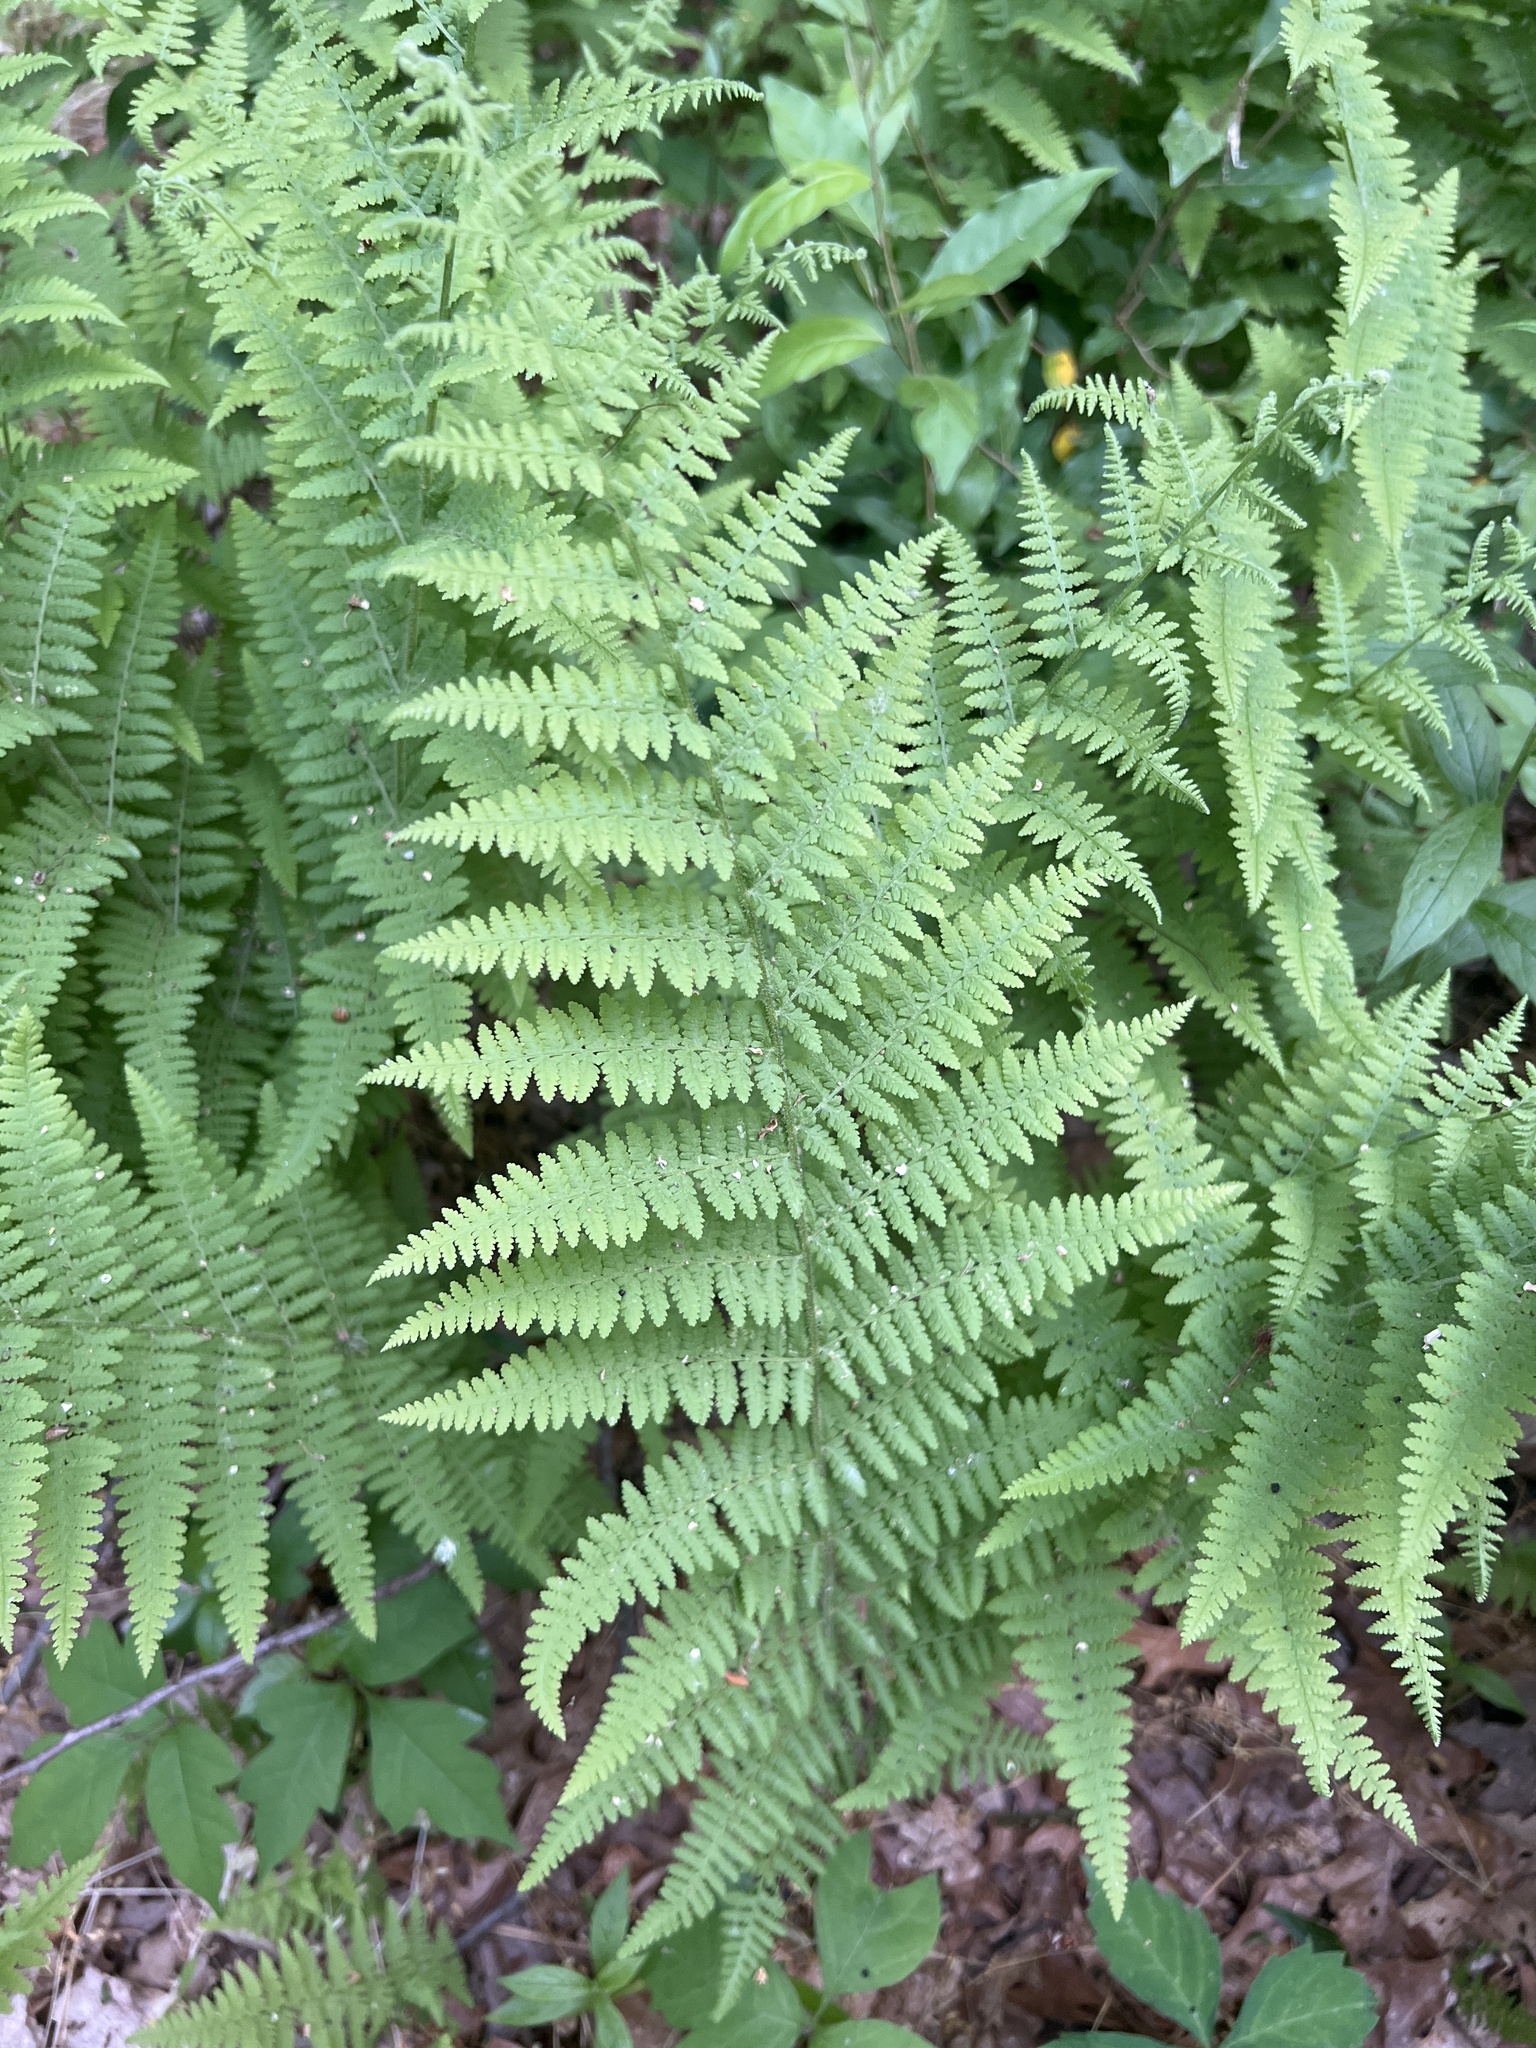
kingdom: Plantae
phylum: Tracheophyta
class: Polypodiopsida
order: Polypodiales
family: Dennstaedtiaceae
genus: Sitobolium
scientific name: Sitobolium punctilobum
